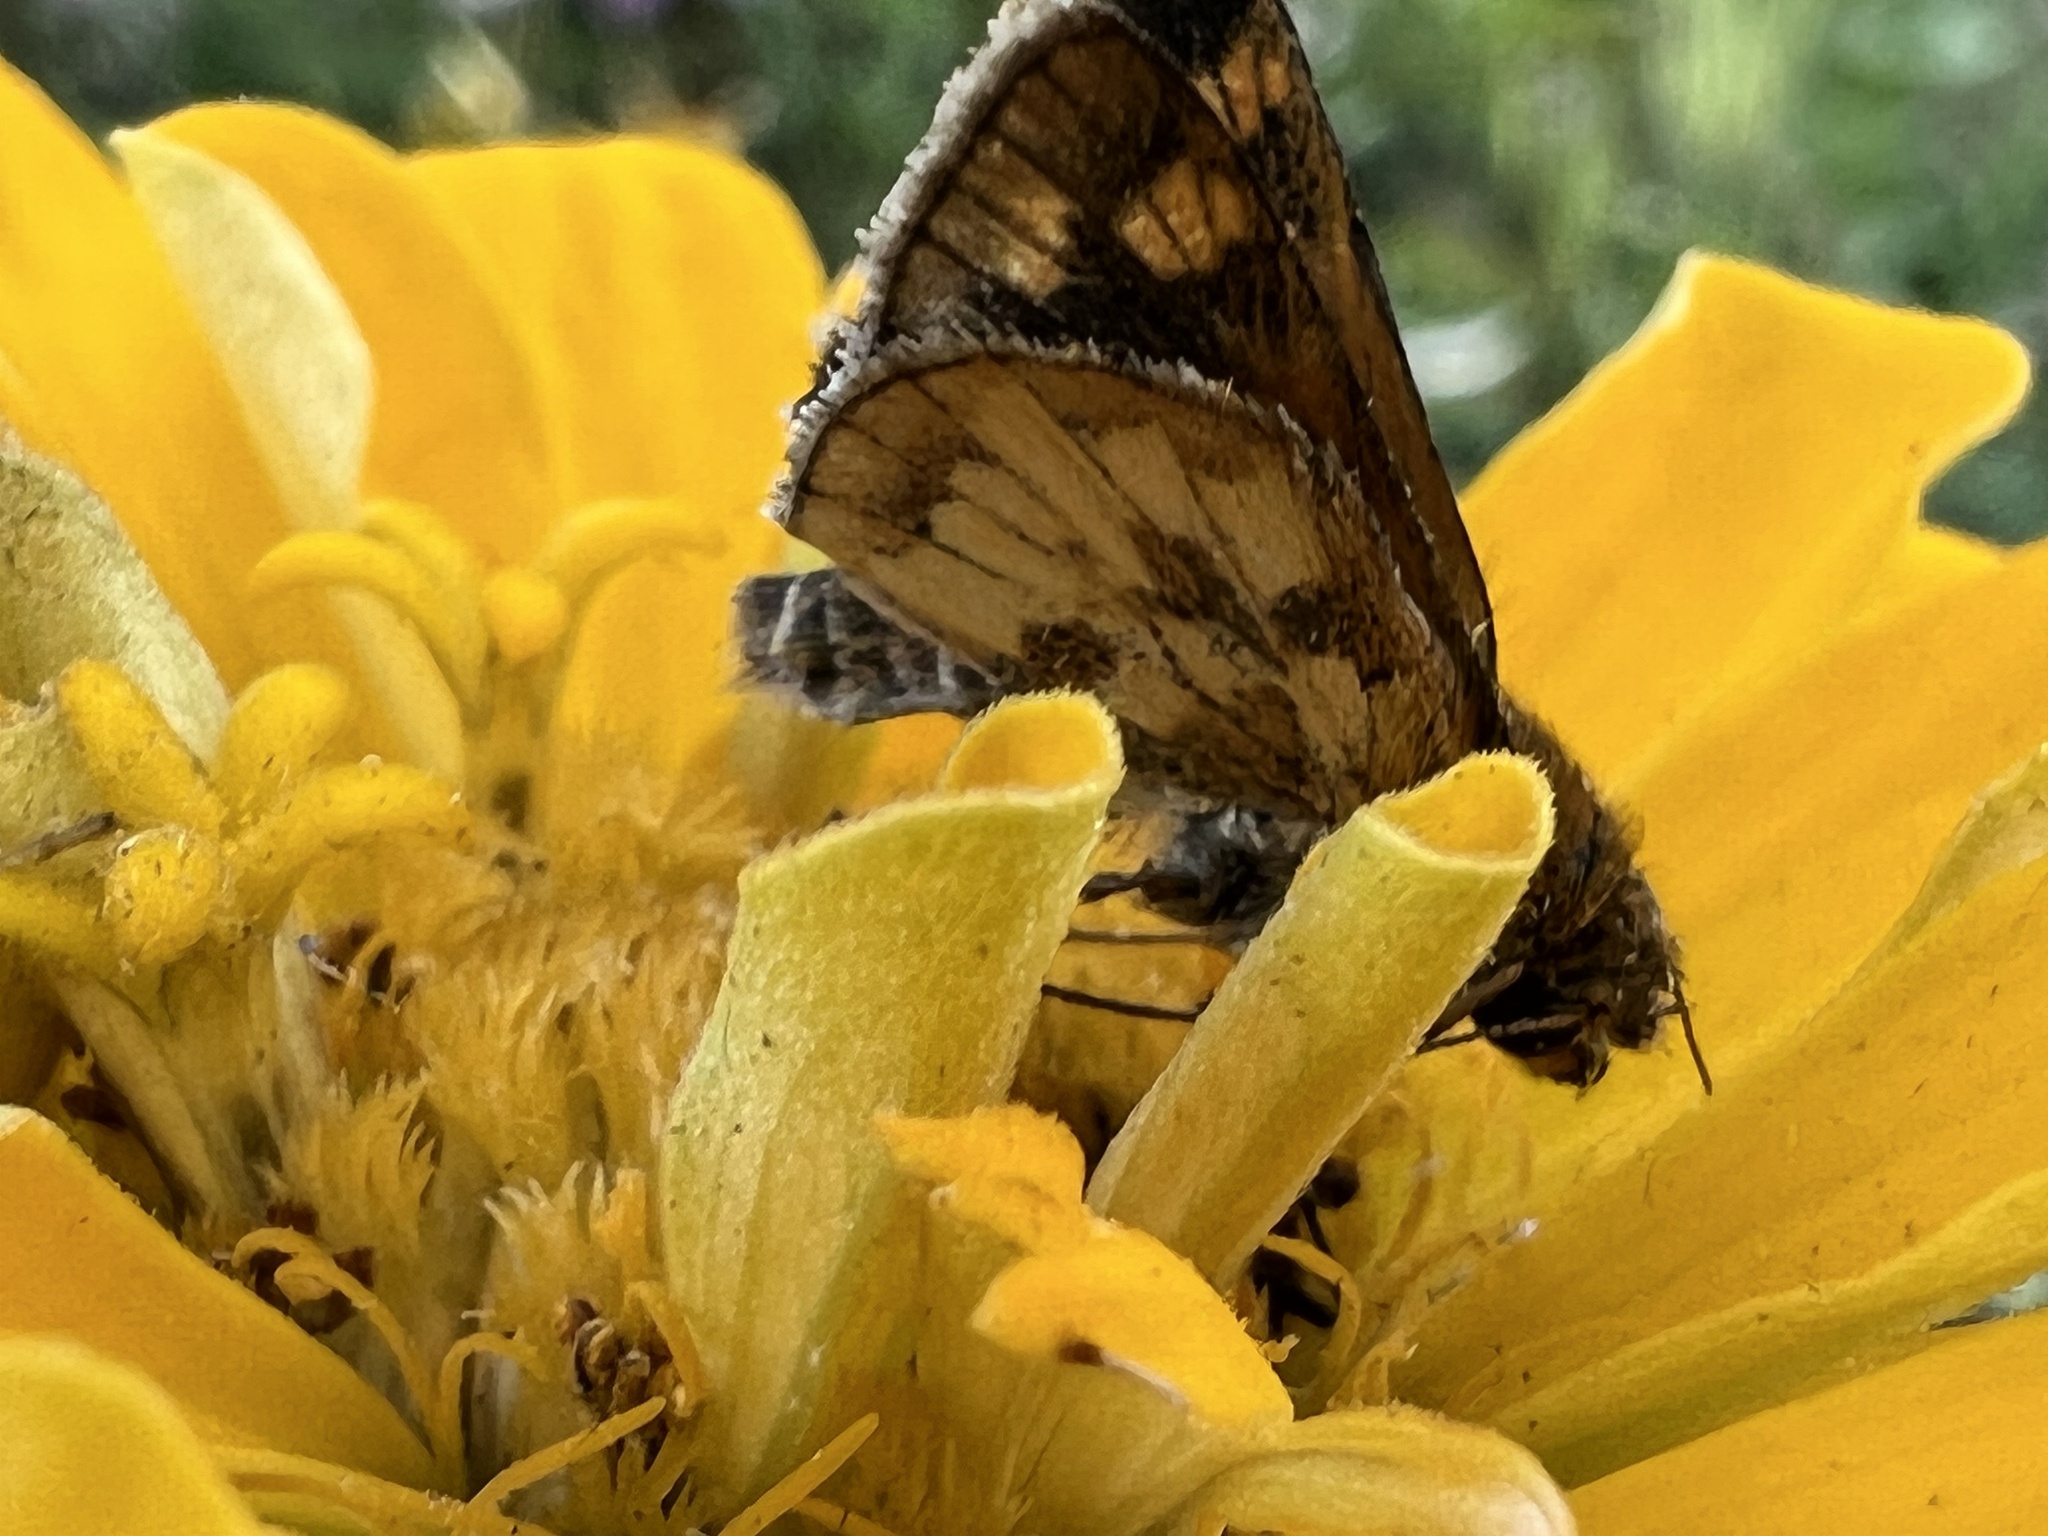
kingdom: Animalia
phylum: Arthropoda
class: Insecta
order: Lepidoptera
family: Hesperiidae
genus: Polites
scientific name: Polites coras
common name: Peck's skipper
